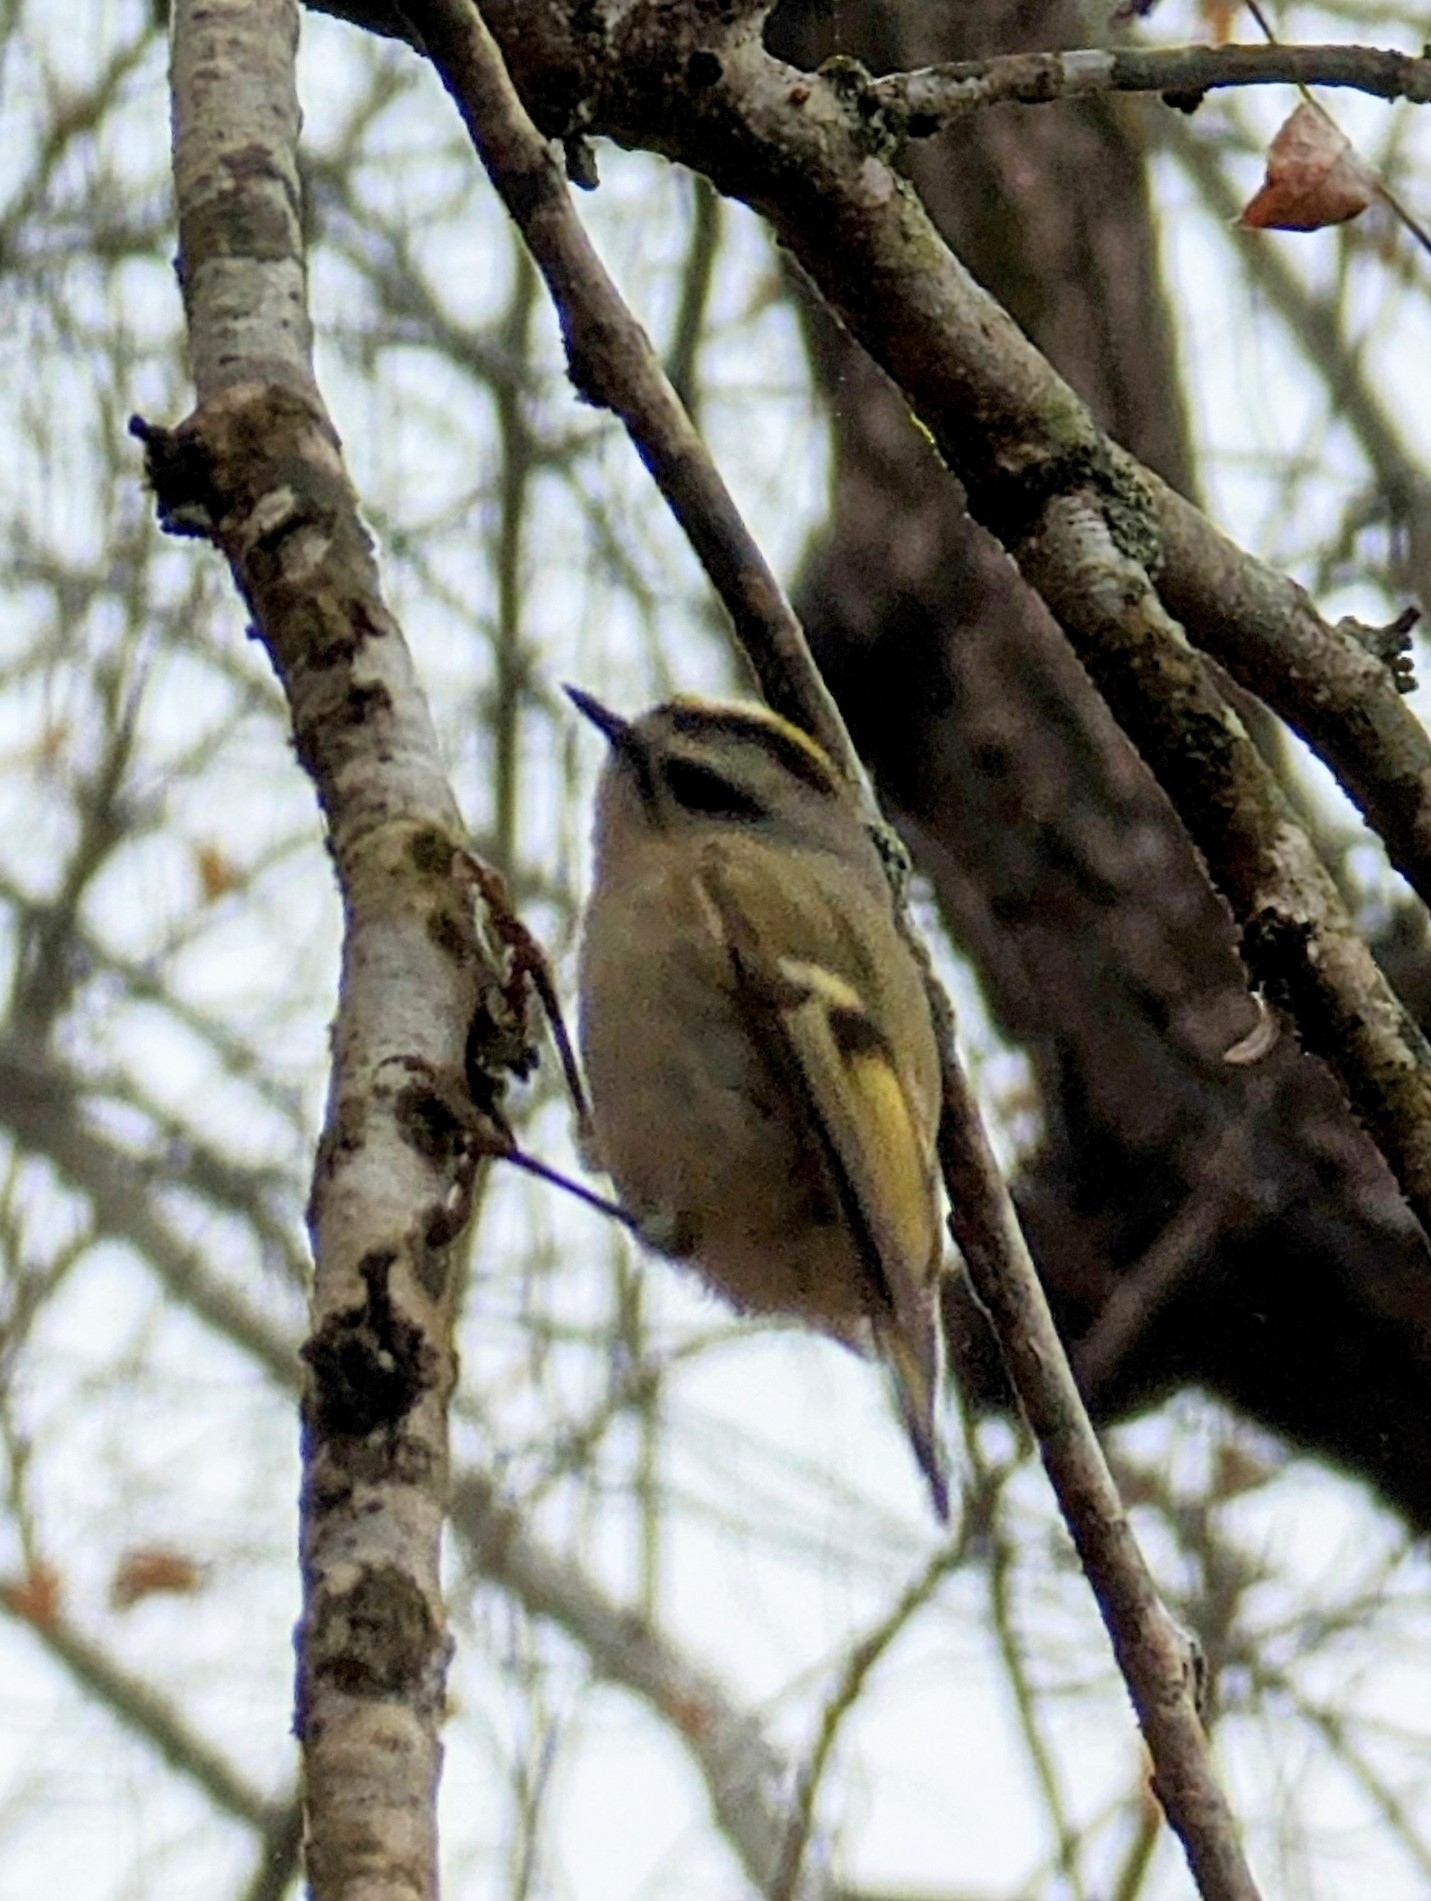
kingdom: Animalia
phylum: Chordata
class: Aves
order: Passeriformes
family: Regulidae
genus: Regulus
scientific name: Regulus satrapa
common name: Golden-crowned kinglet
